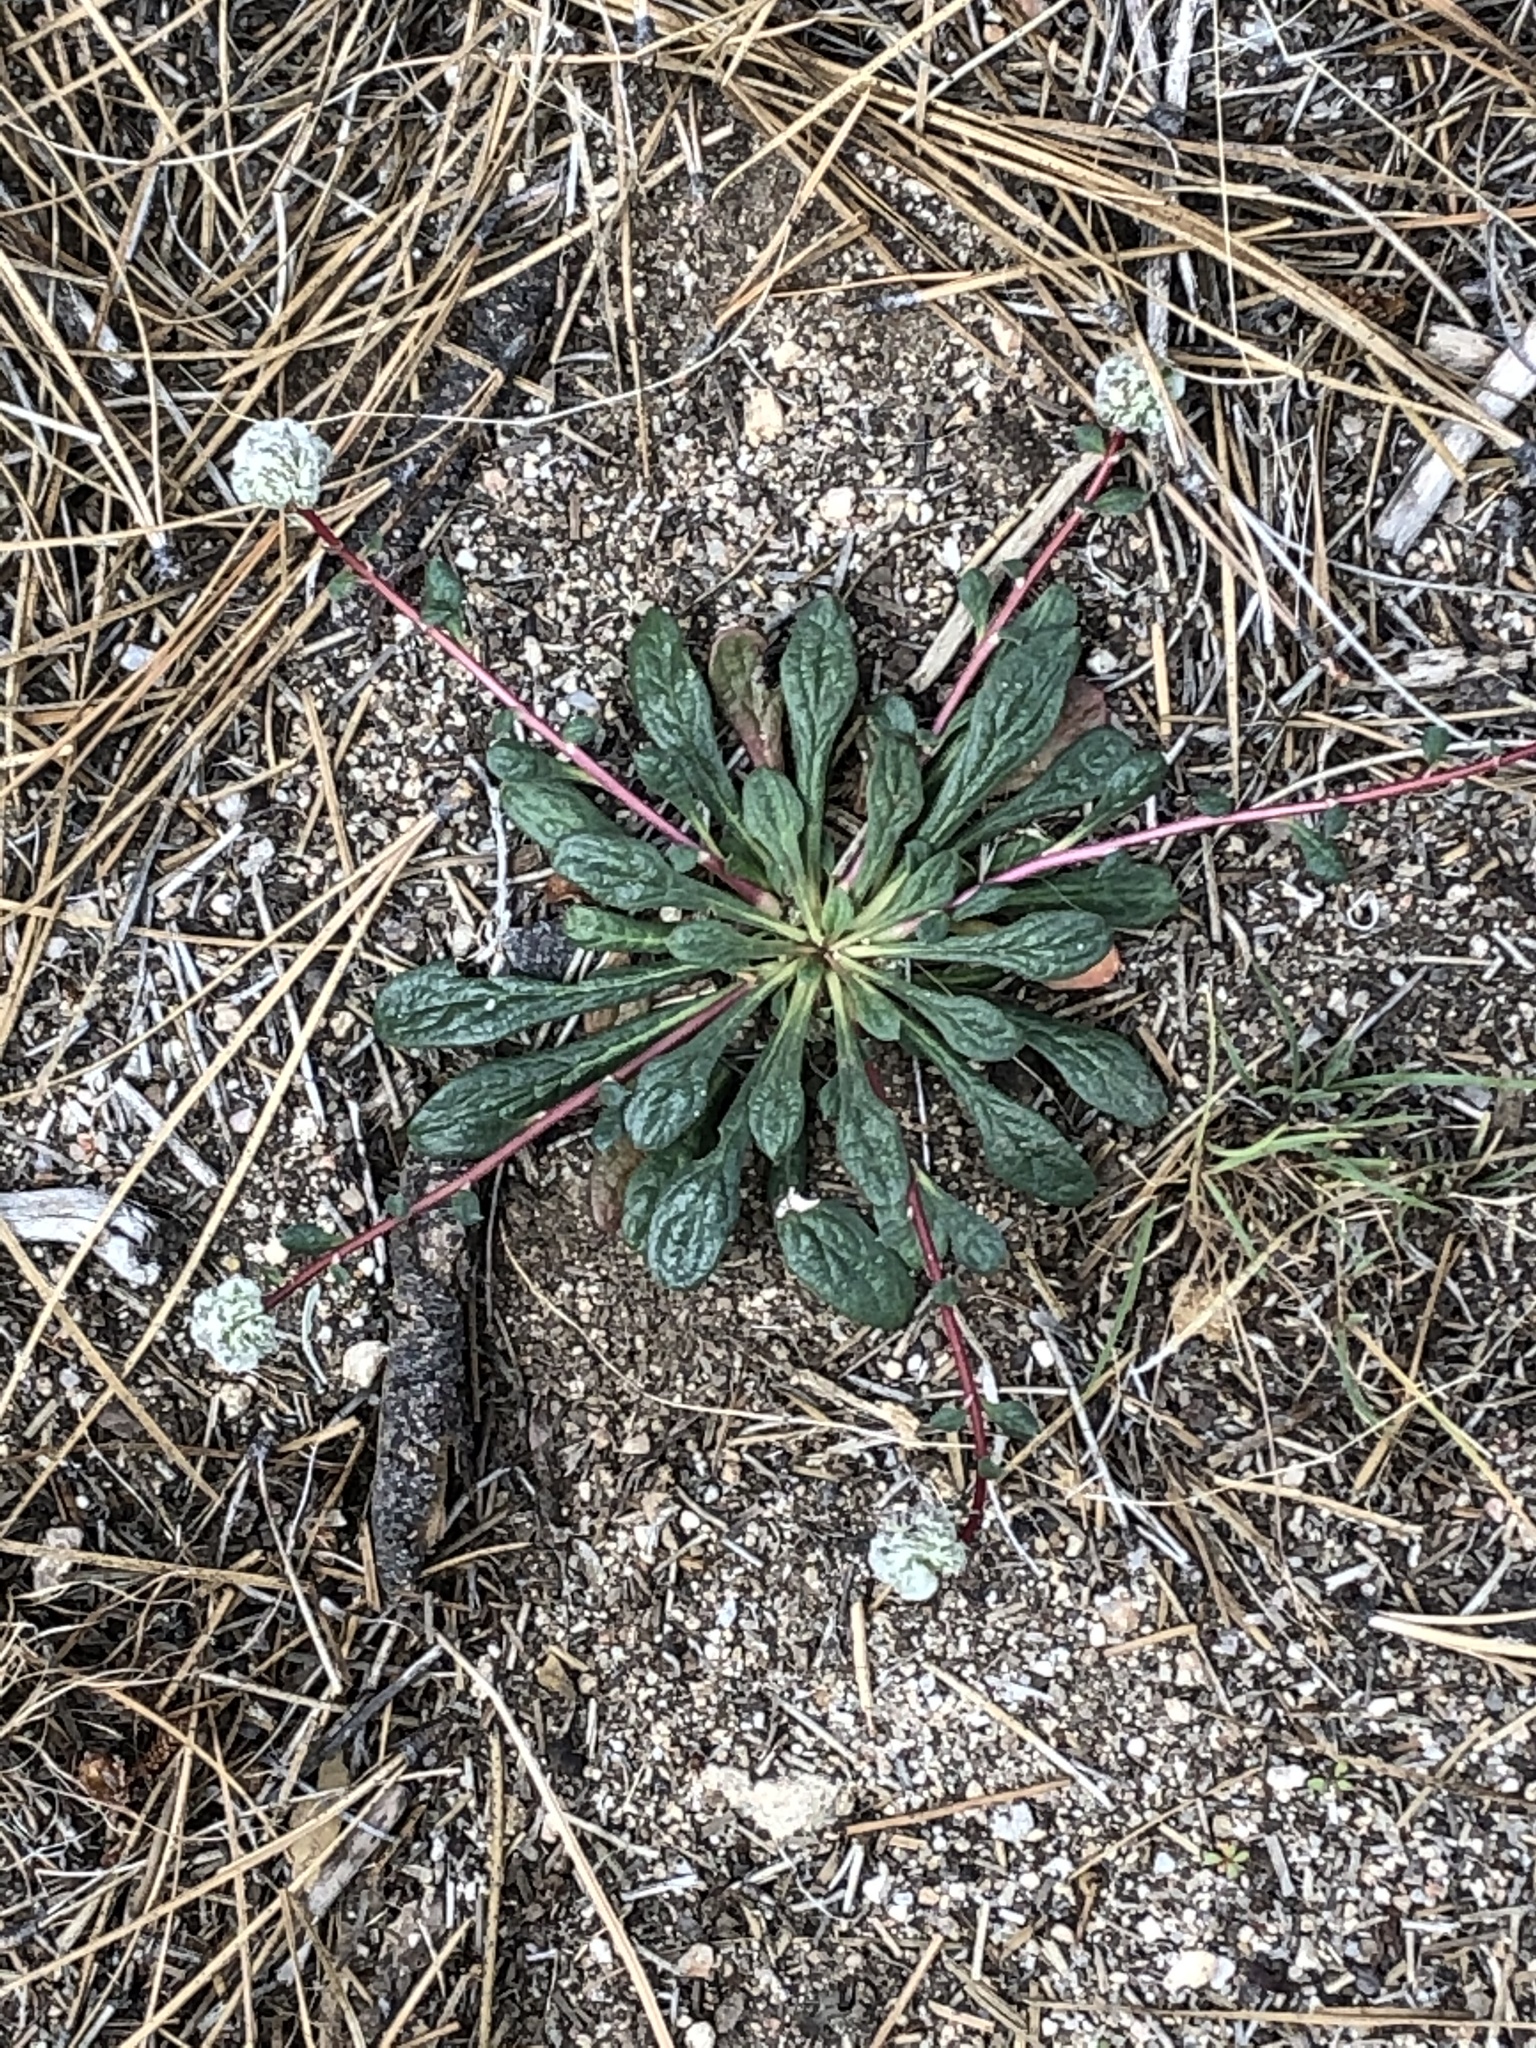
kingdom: Plantae
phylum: Tracheophyta
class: Magnoliopsida
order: Caryophyllales
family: Montiaceae
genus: Calyptridium
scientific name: Calyptridium monospermum
